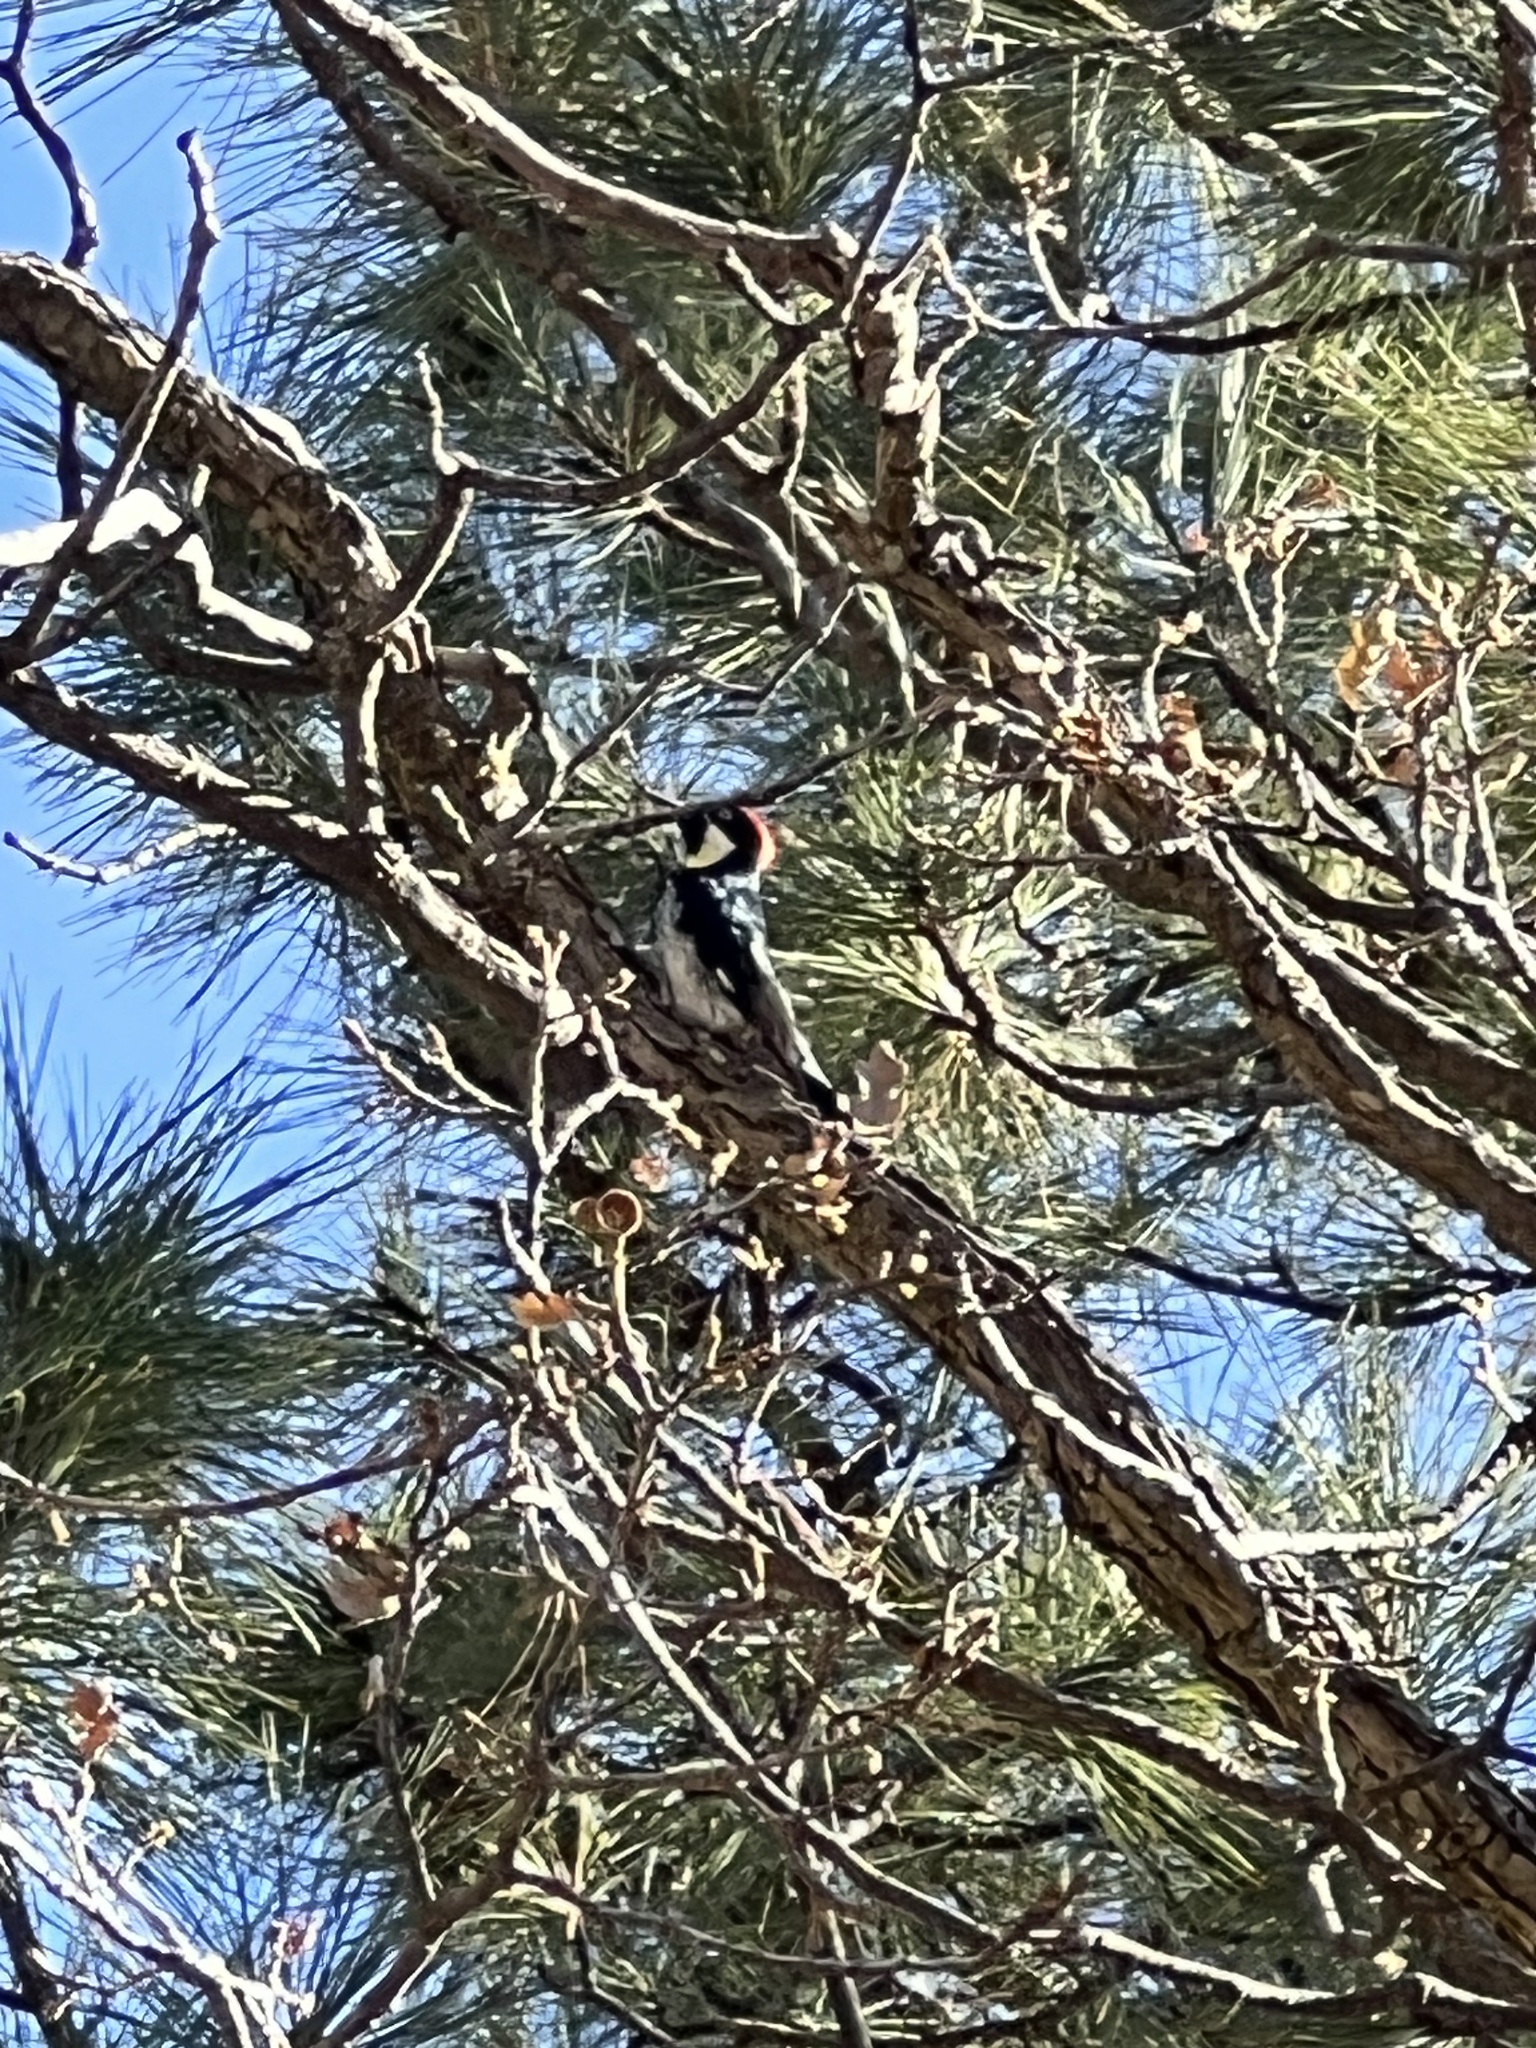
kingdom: Animalia
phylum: Chordata
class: Aves
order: Piciformes
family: Picidae
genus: Melanerpes
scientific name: Melanerpes formicivorus
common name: Acorn woodpecker
